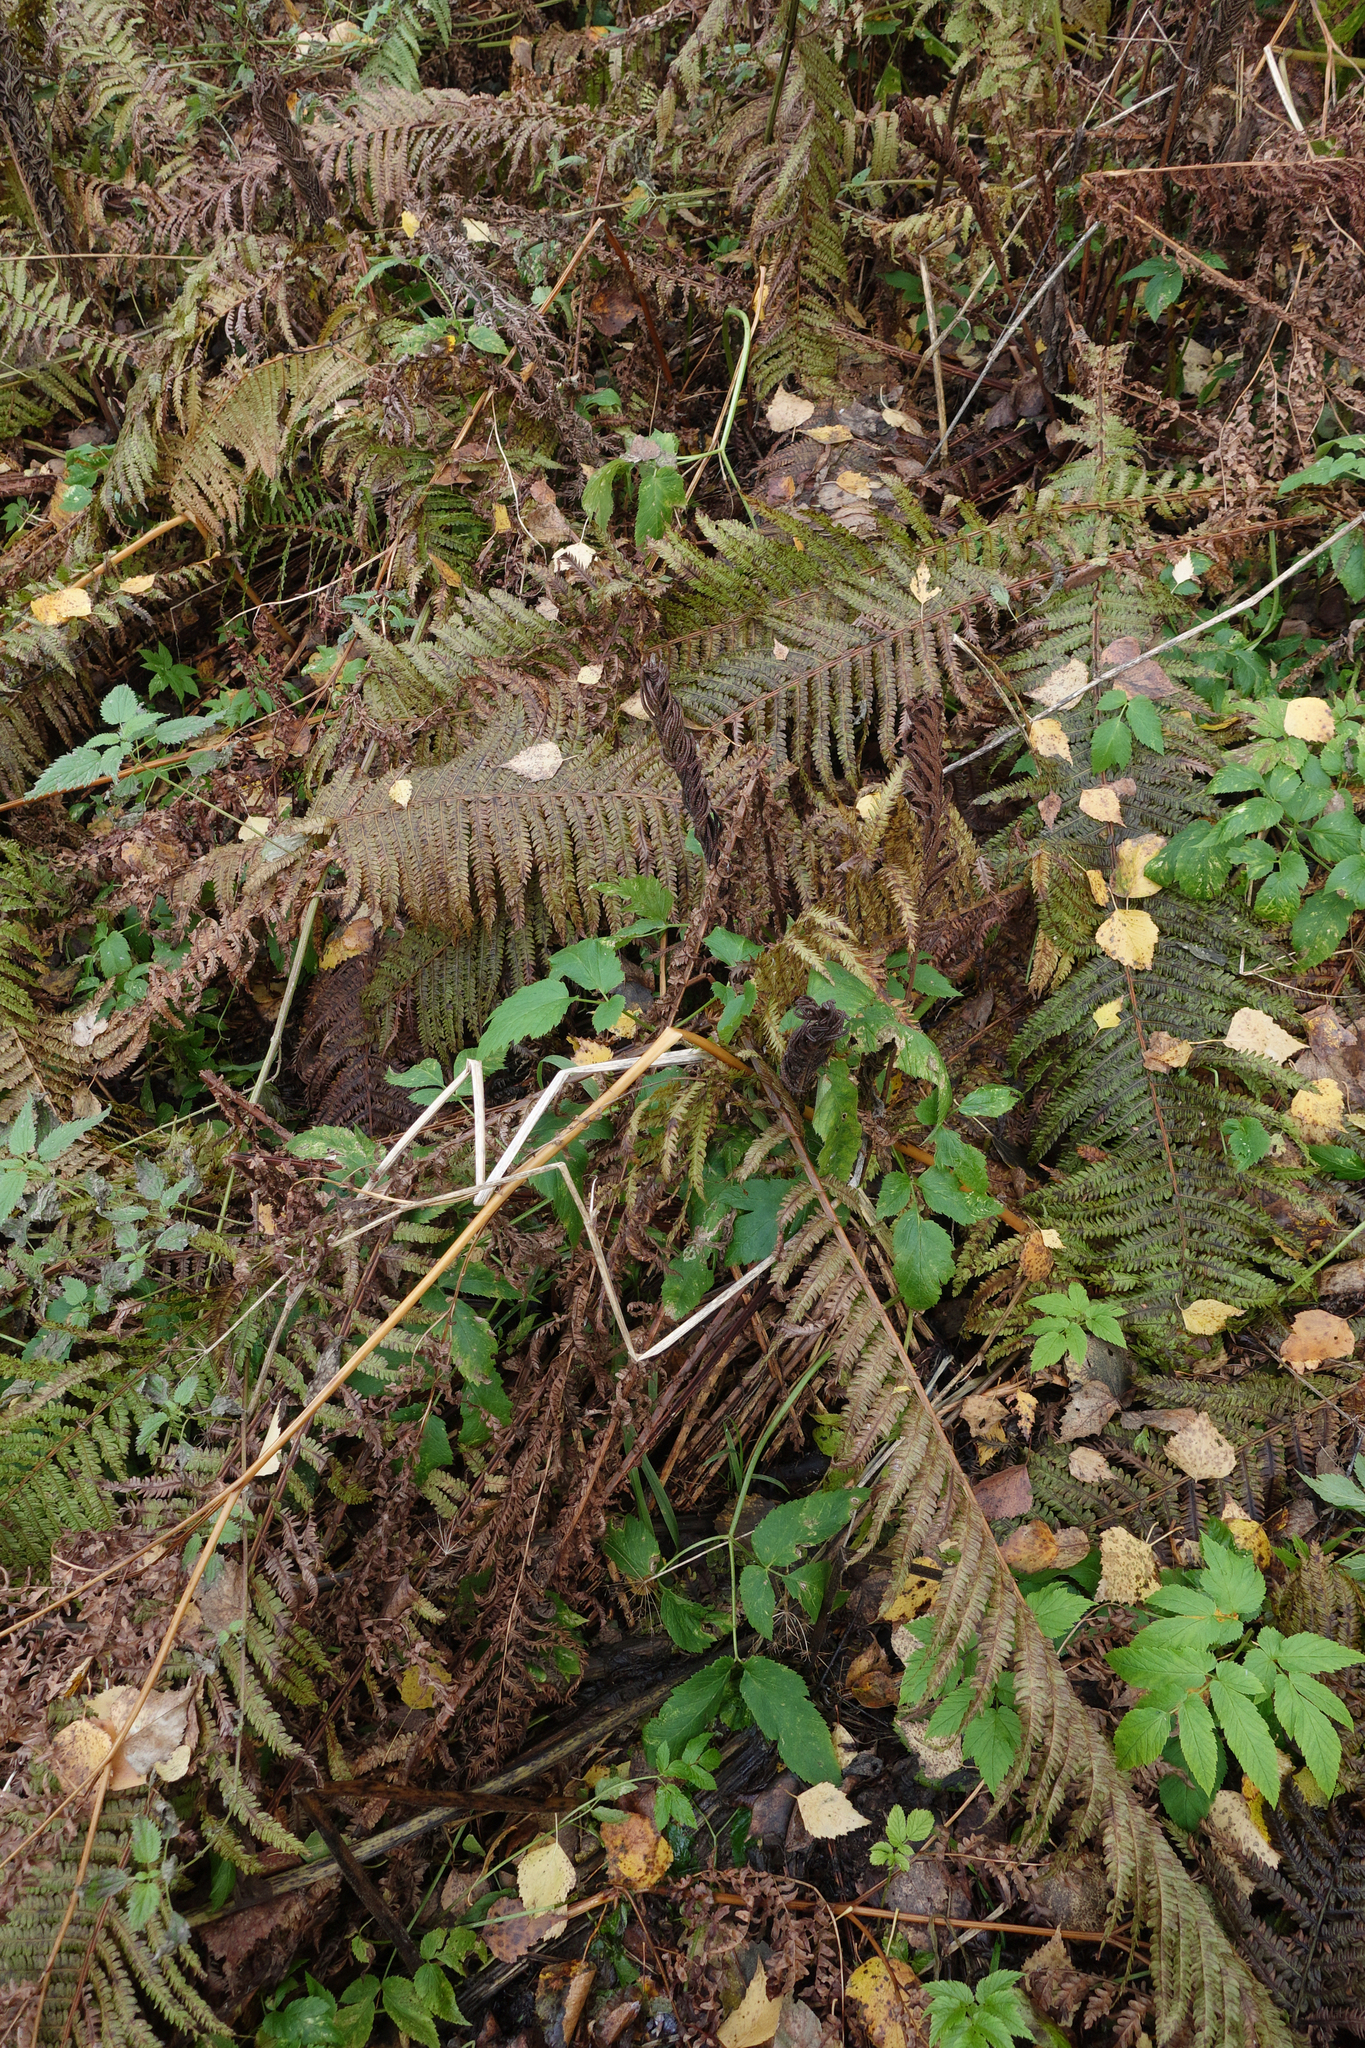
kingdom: Plantae
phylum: Tracheophyta
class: Polypodiopsida
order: Polypodiales
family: Onocleaceae
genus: Matteuccia
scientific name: Matteuccia struthiopteris
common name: Ostrich fern
